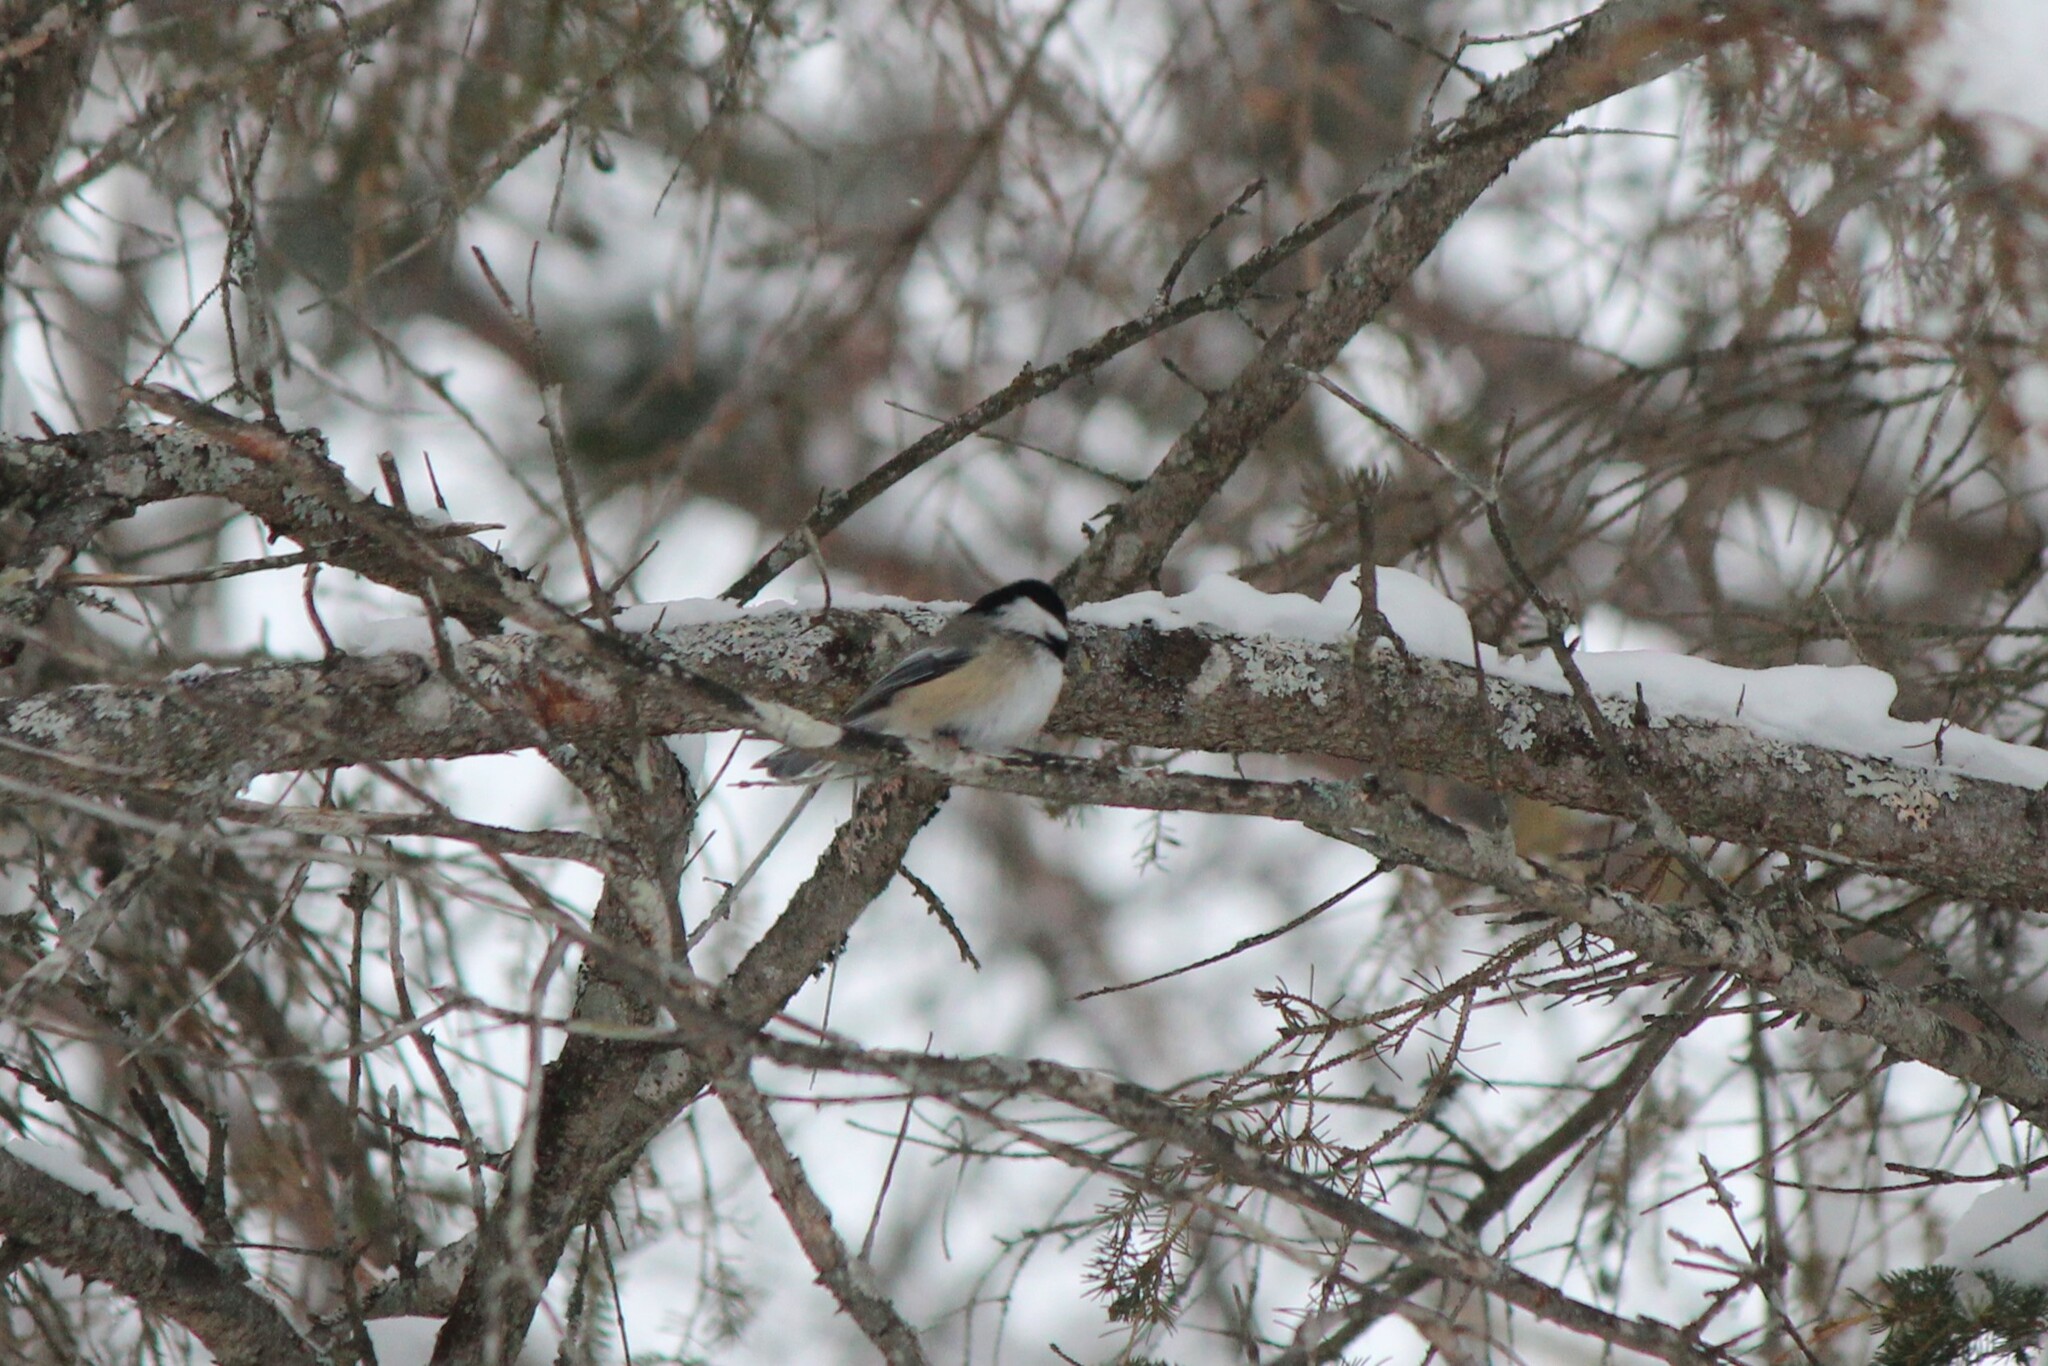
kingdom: Animalia
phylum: Chordata
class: Aves
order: Passeriformes
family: Paridae
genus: Poecile
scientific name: Poecile atricapillus
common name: Black-capped chickadee
